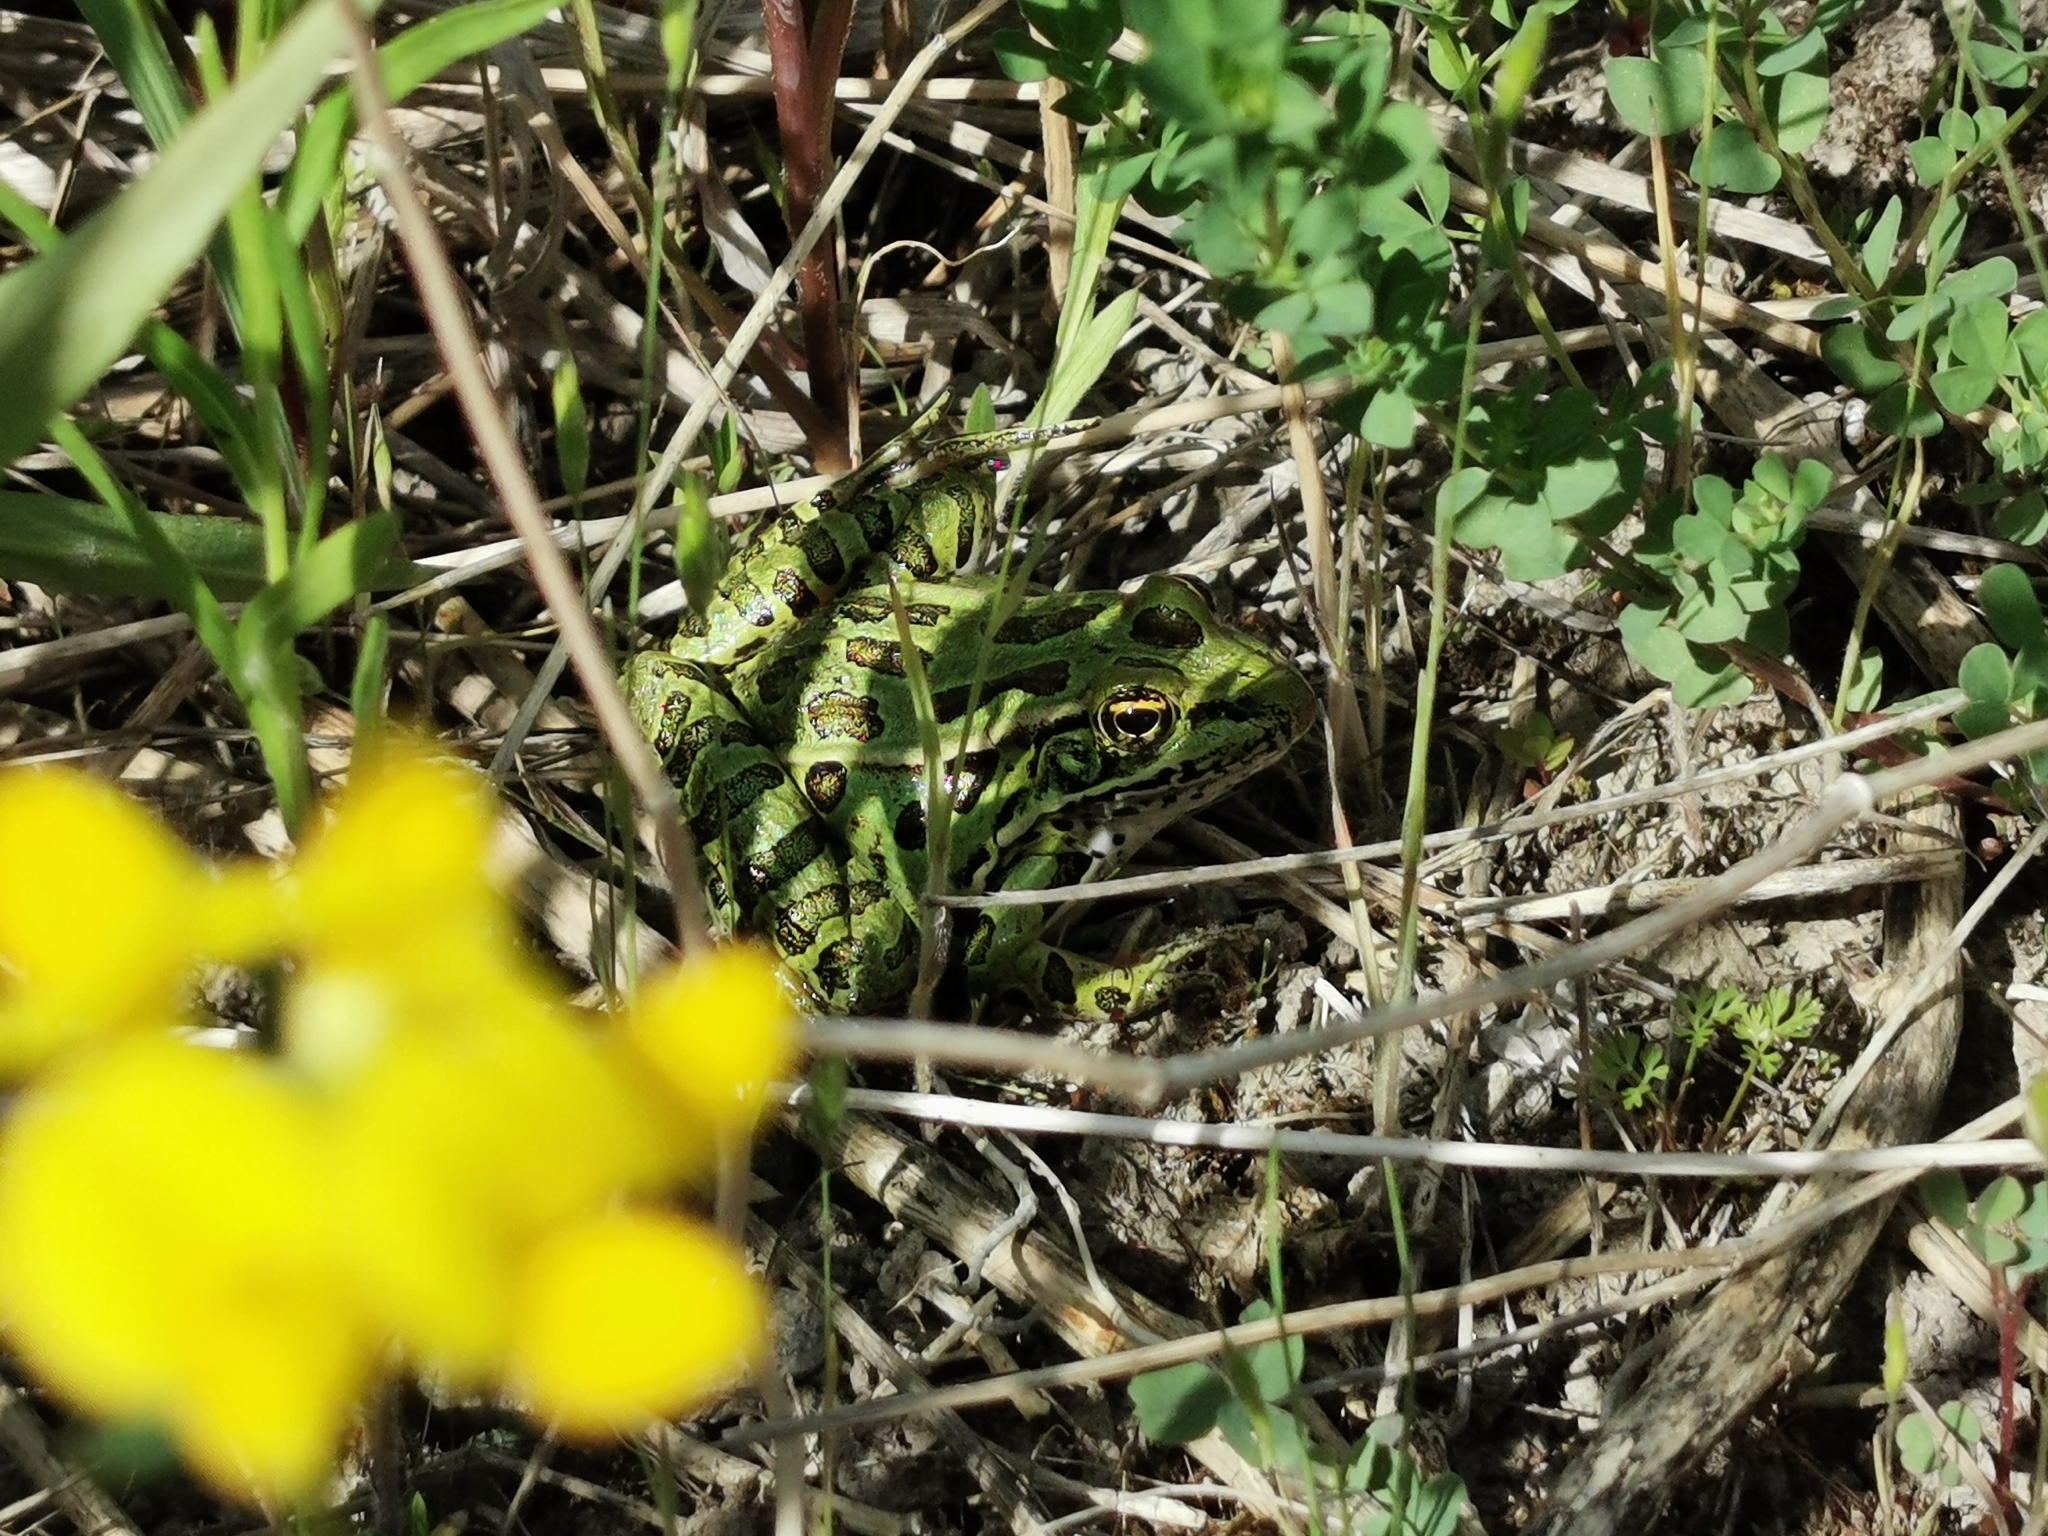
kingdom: Animalia
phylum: Chordata
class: Amphibia
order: Anura
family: Ranidae
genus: Lithobates
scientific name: Lithobates pipiens
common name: Northern leopard frog
